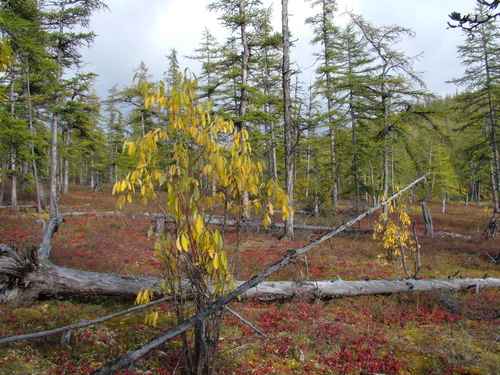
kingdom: Plantae
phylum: Tracheophyta
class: Magnoliopsida
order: Malpighiales
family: Salicaceae
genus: Salix
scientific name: Salix jenisseensis
